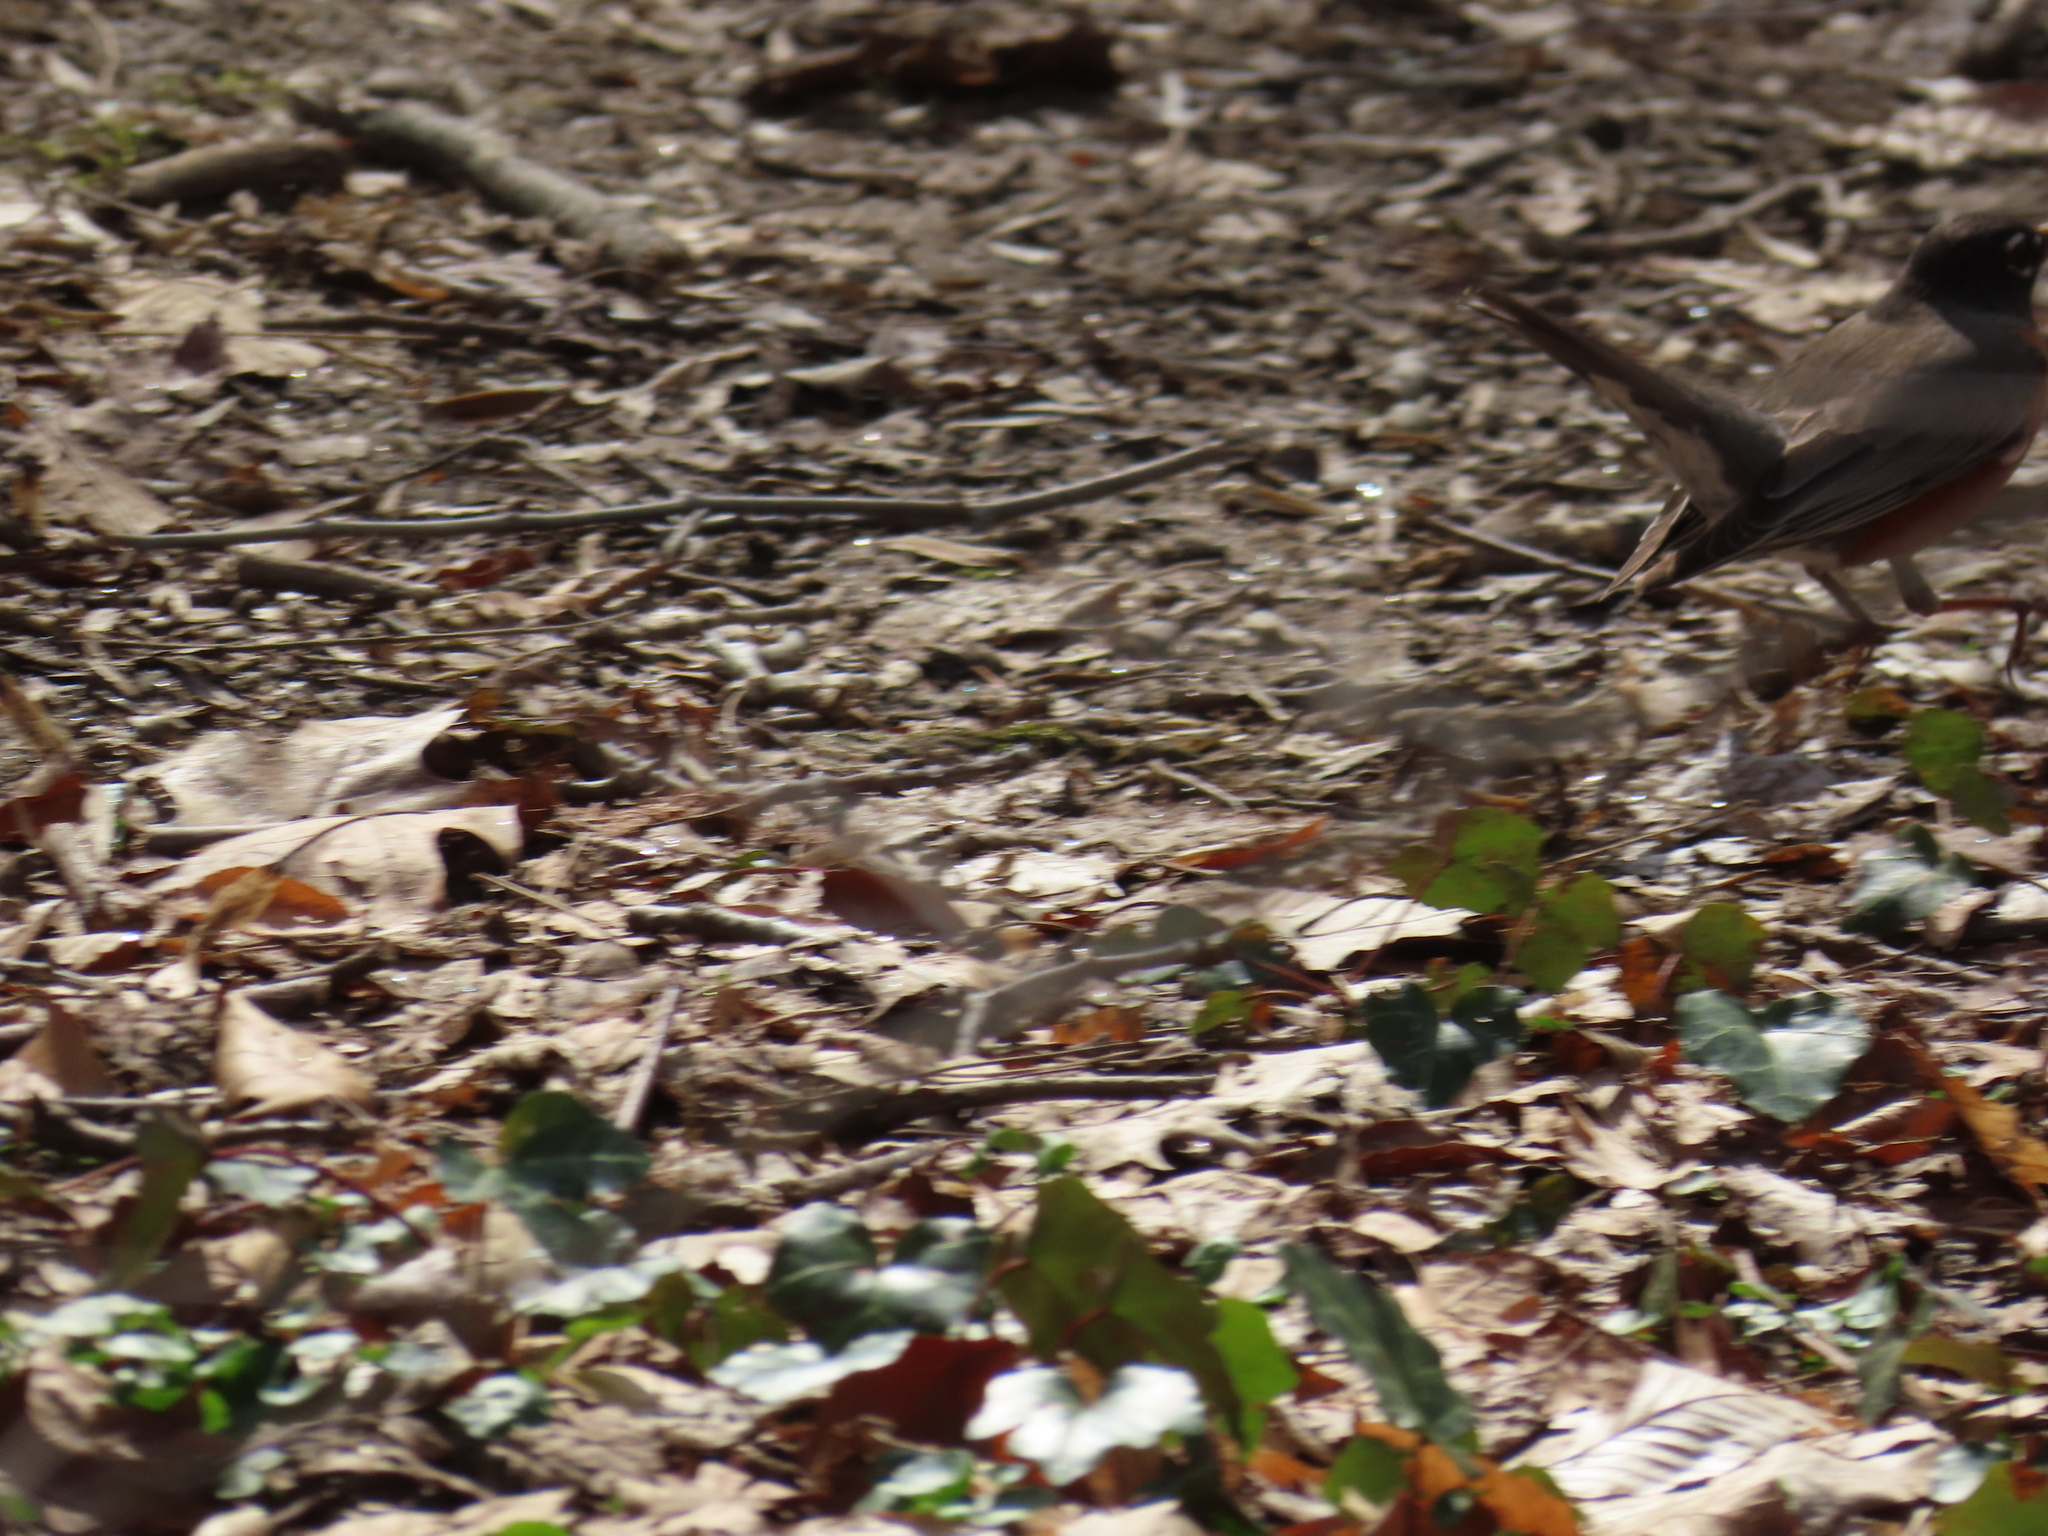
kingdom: Animalia
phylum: Chordata
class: Aves
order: Passeriformes
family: Turdidae
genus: Turdus
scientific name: Turdus migratorius
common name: American robin
